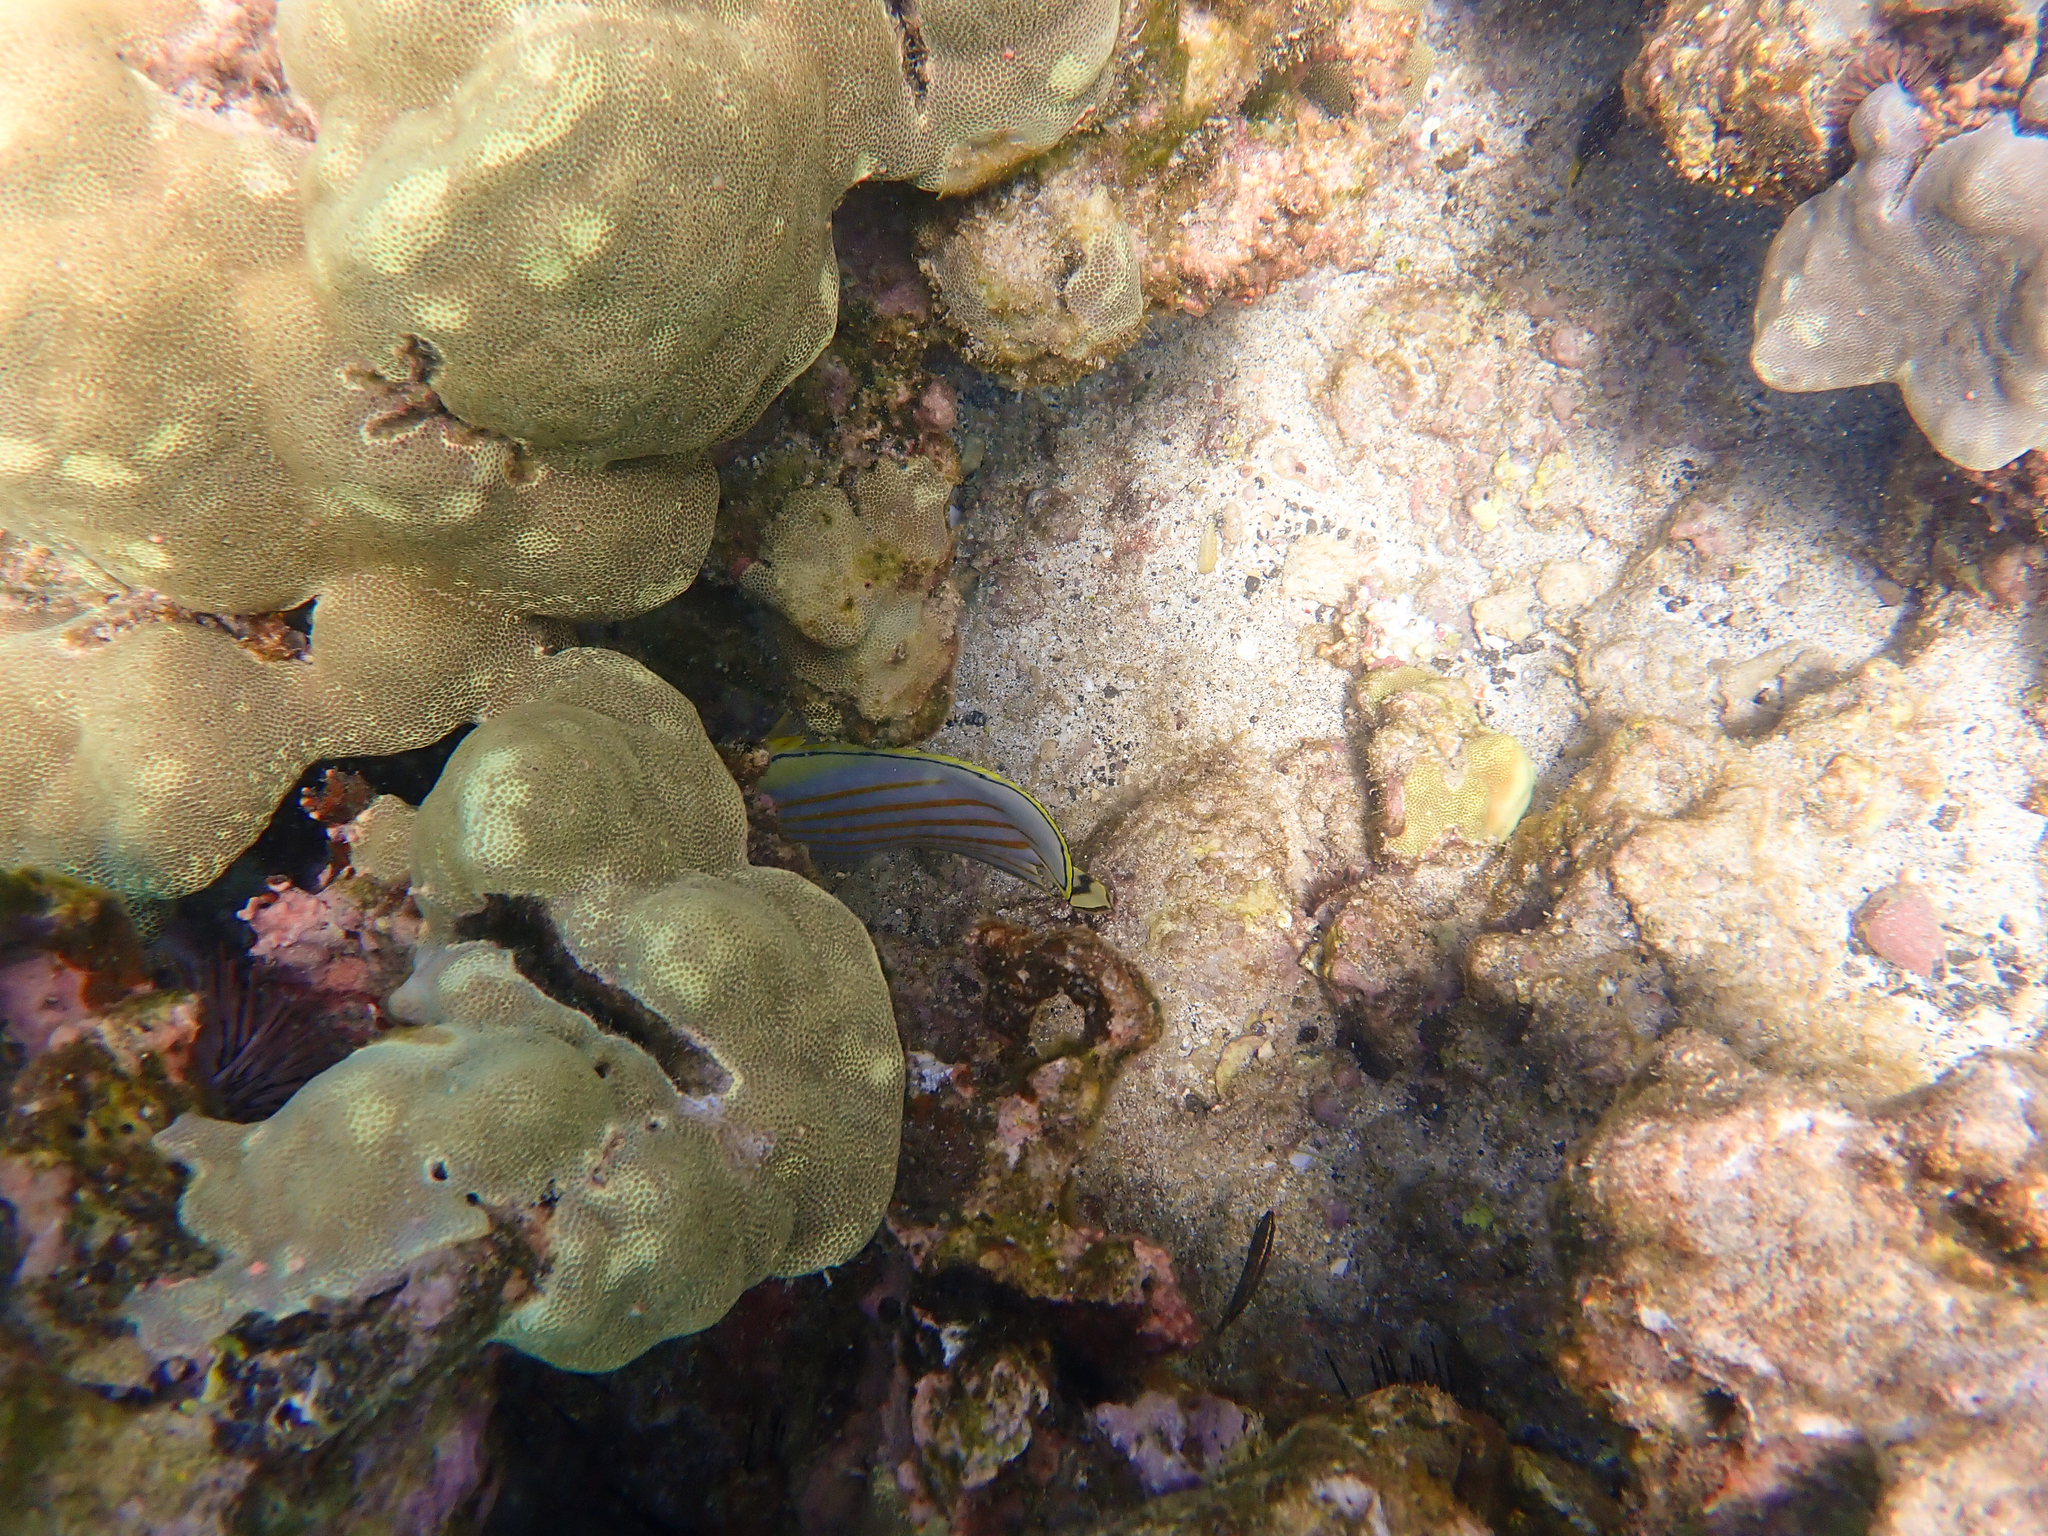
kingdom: Animalia
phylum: Chordata
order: Perciformes
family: Chaetodontidae
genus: Chaetodon
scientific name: Chaetodon ornatissimus
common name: Ornate butterflyfish
